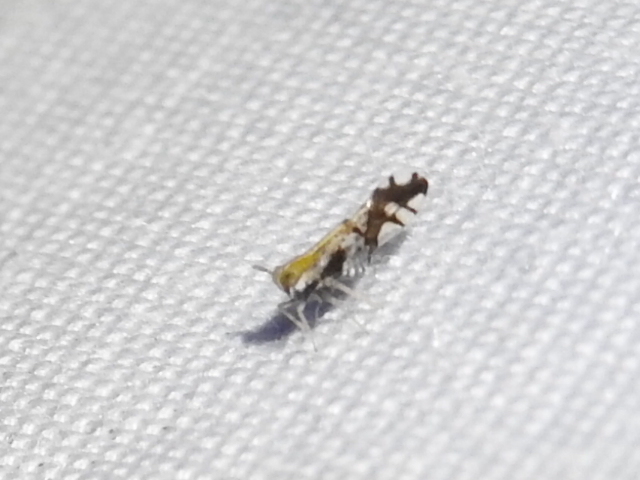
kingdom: Animalia
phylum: Arthropoda
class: Insecta
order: Hemiptera
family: Delphacidae
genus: Liburniella
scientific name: Liburniella ornata
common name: Ornate planthopper
